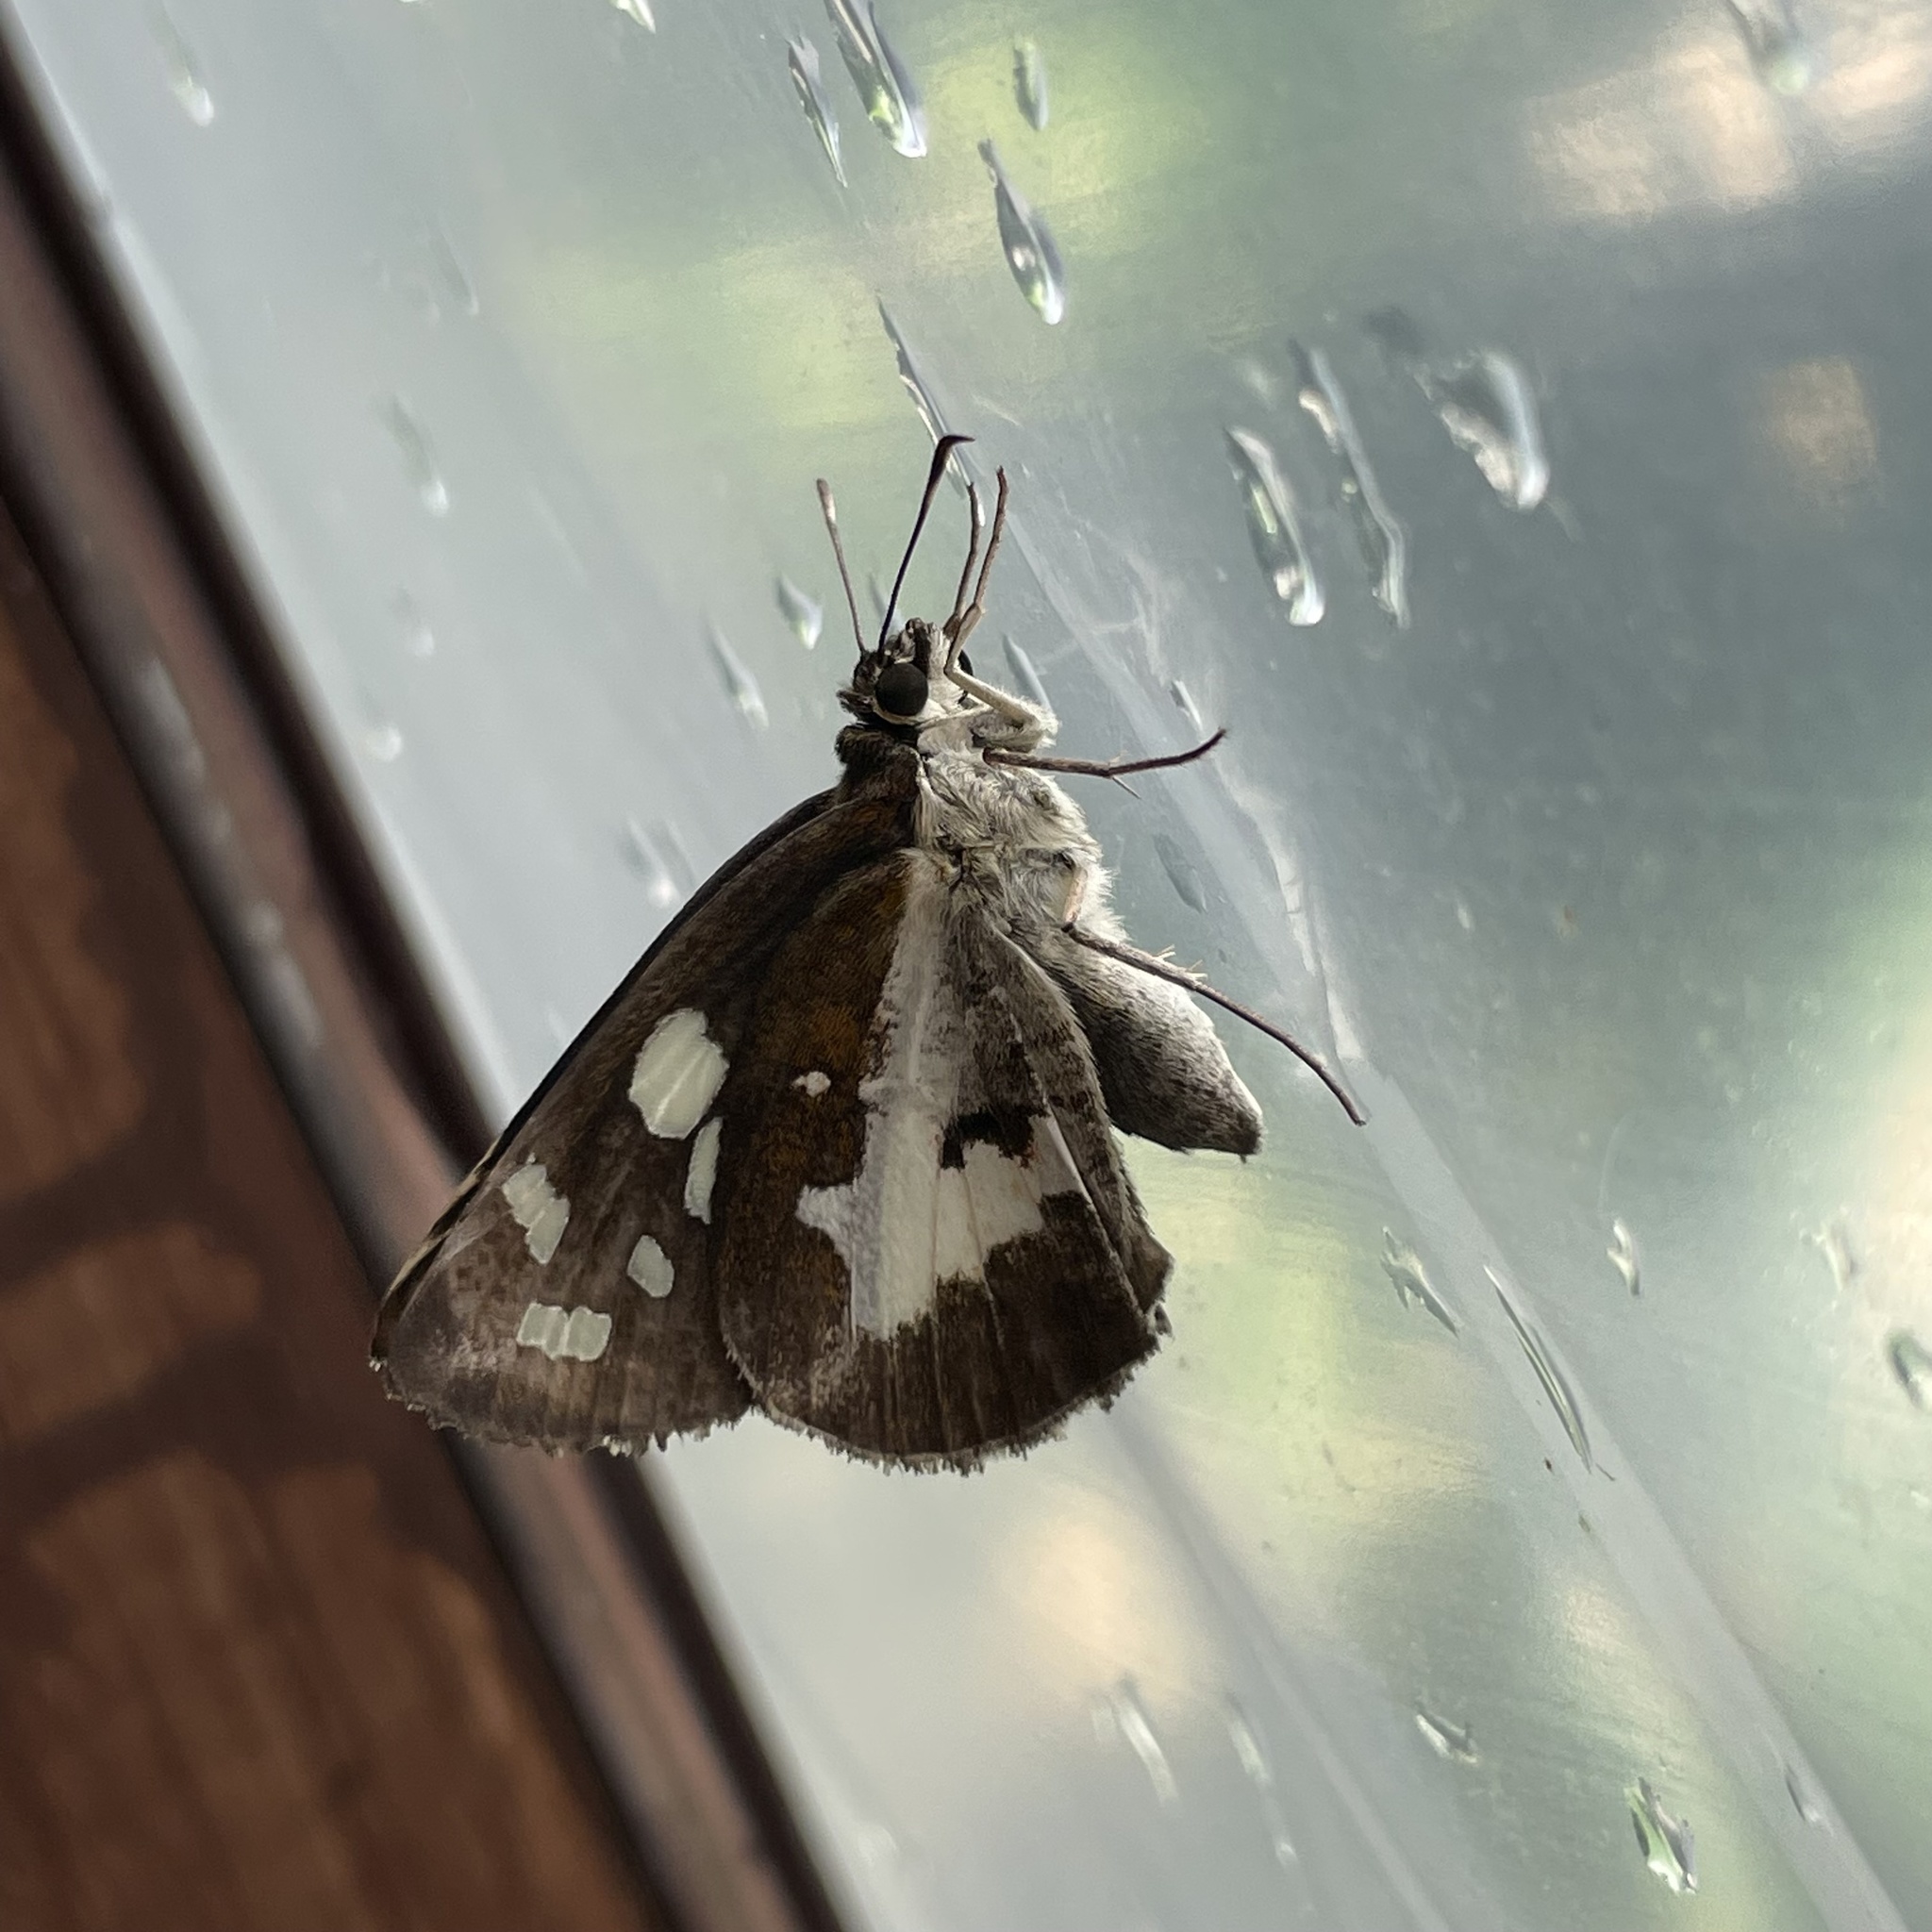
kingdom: Animalia
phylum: Arthropoda
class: Insecta
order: Lepidoptera
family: Hesperiidae
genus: Udaspes
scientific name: Udaspes folus
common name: Grass demon
